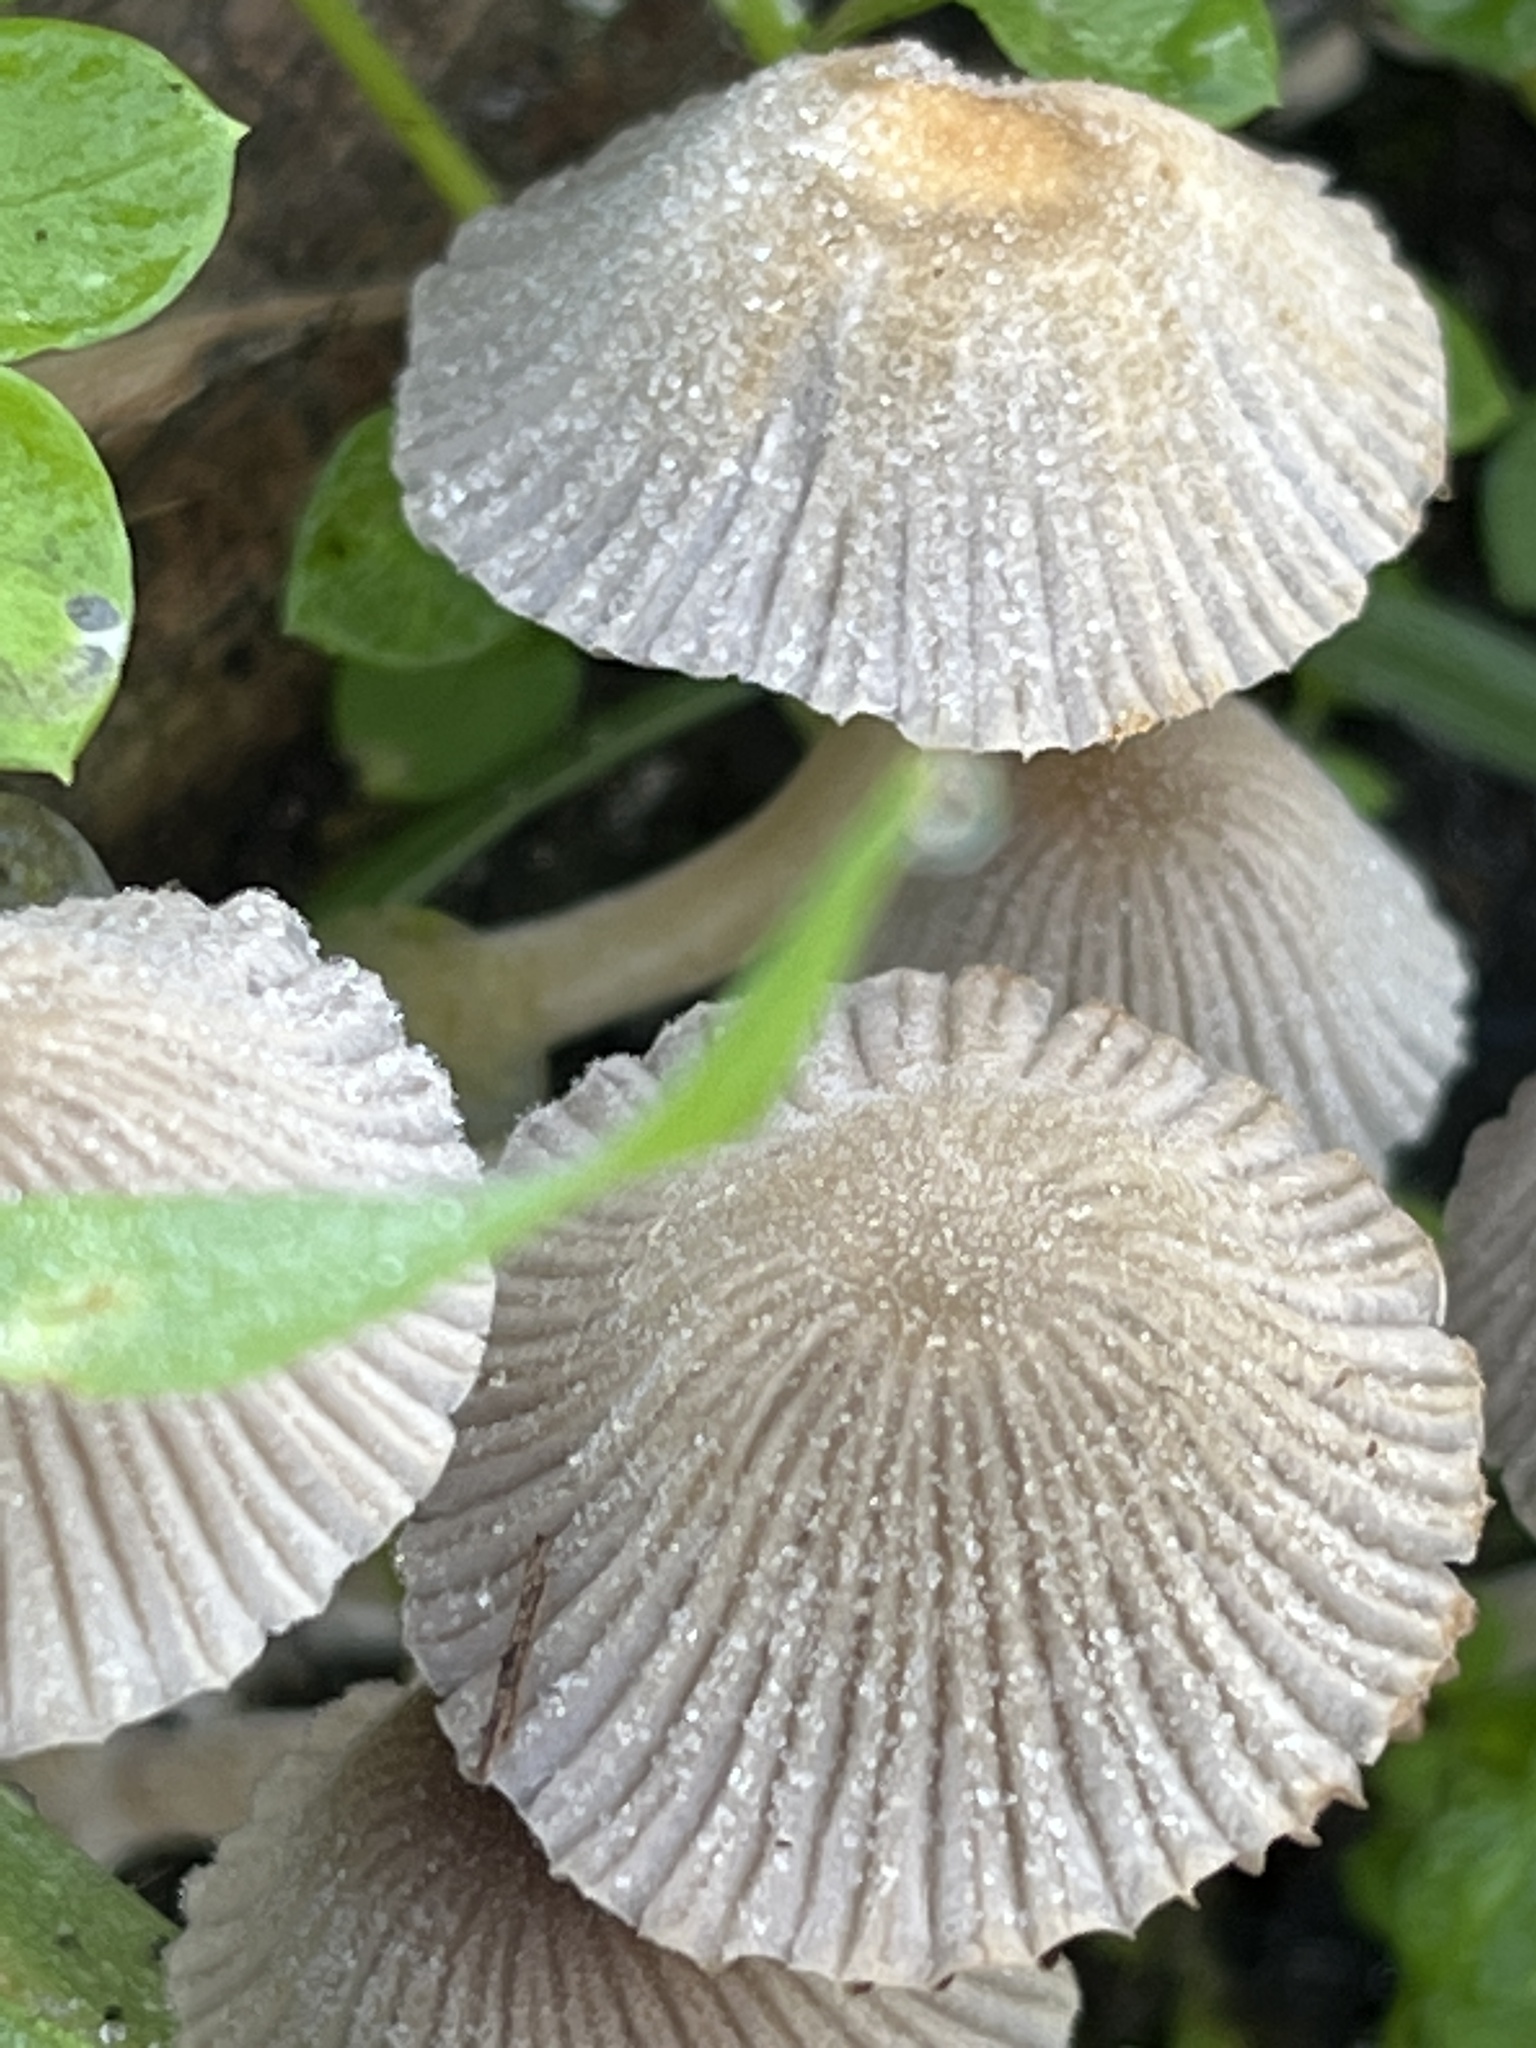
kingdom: Fungi
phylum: Basidiomycota
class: Agaricomycetes
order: Agaricales
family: Psathyrellaceae
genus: Coprinellus
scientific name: Coprinellus disseminatus
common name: Fairies' bonnets
